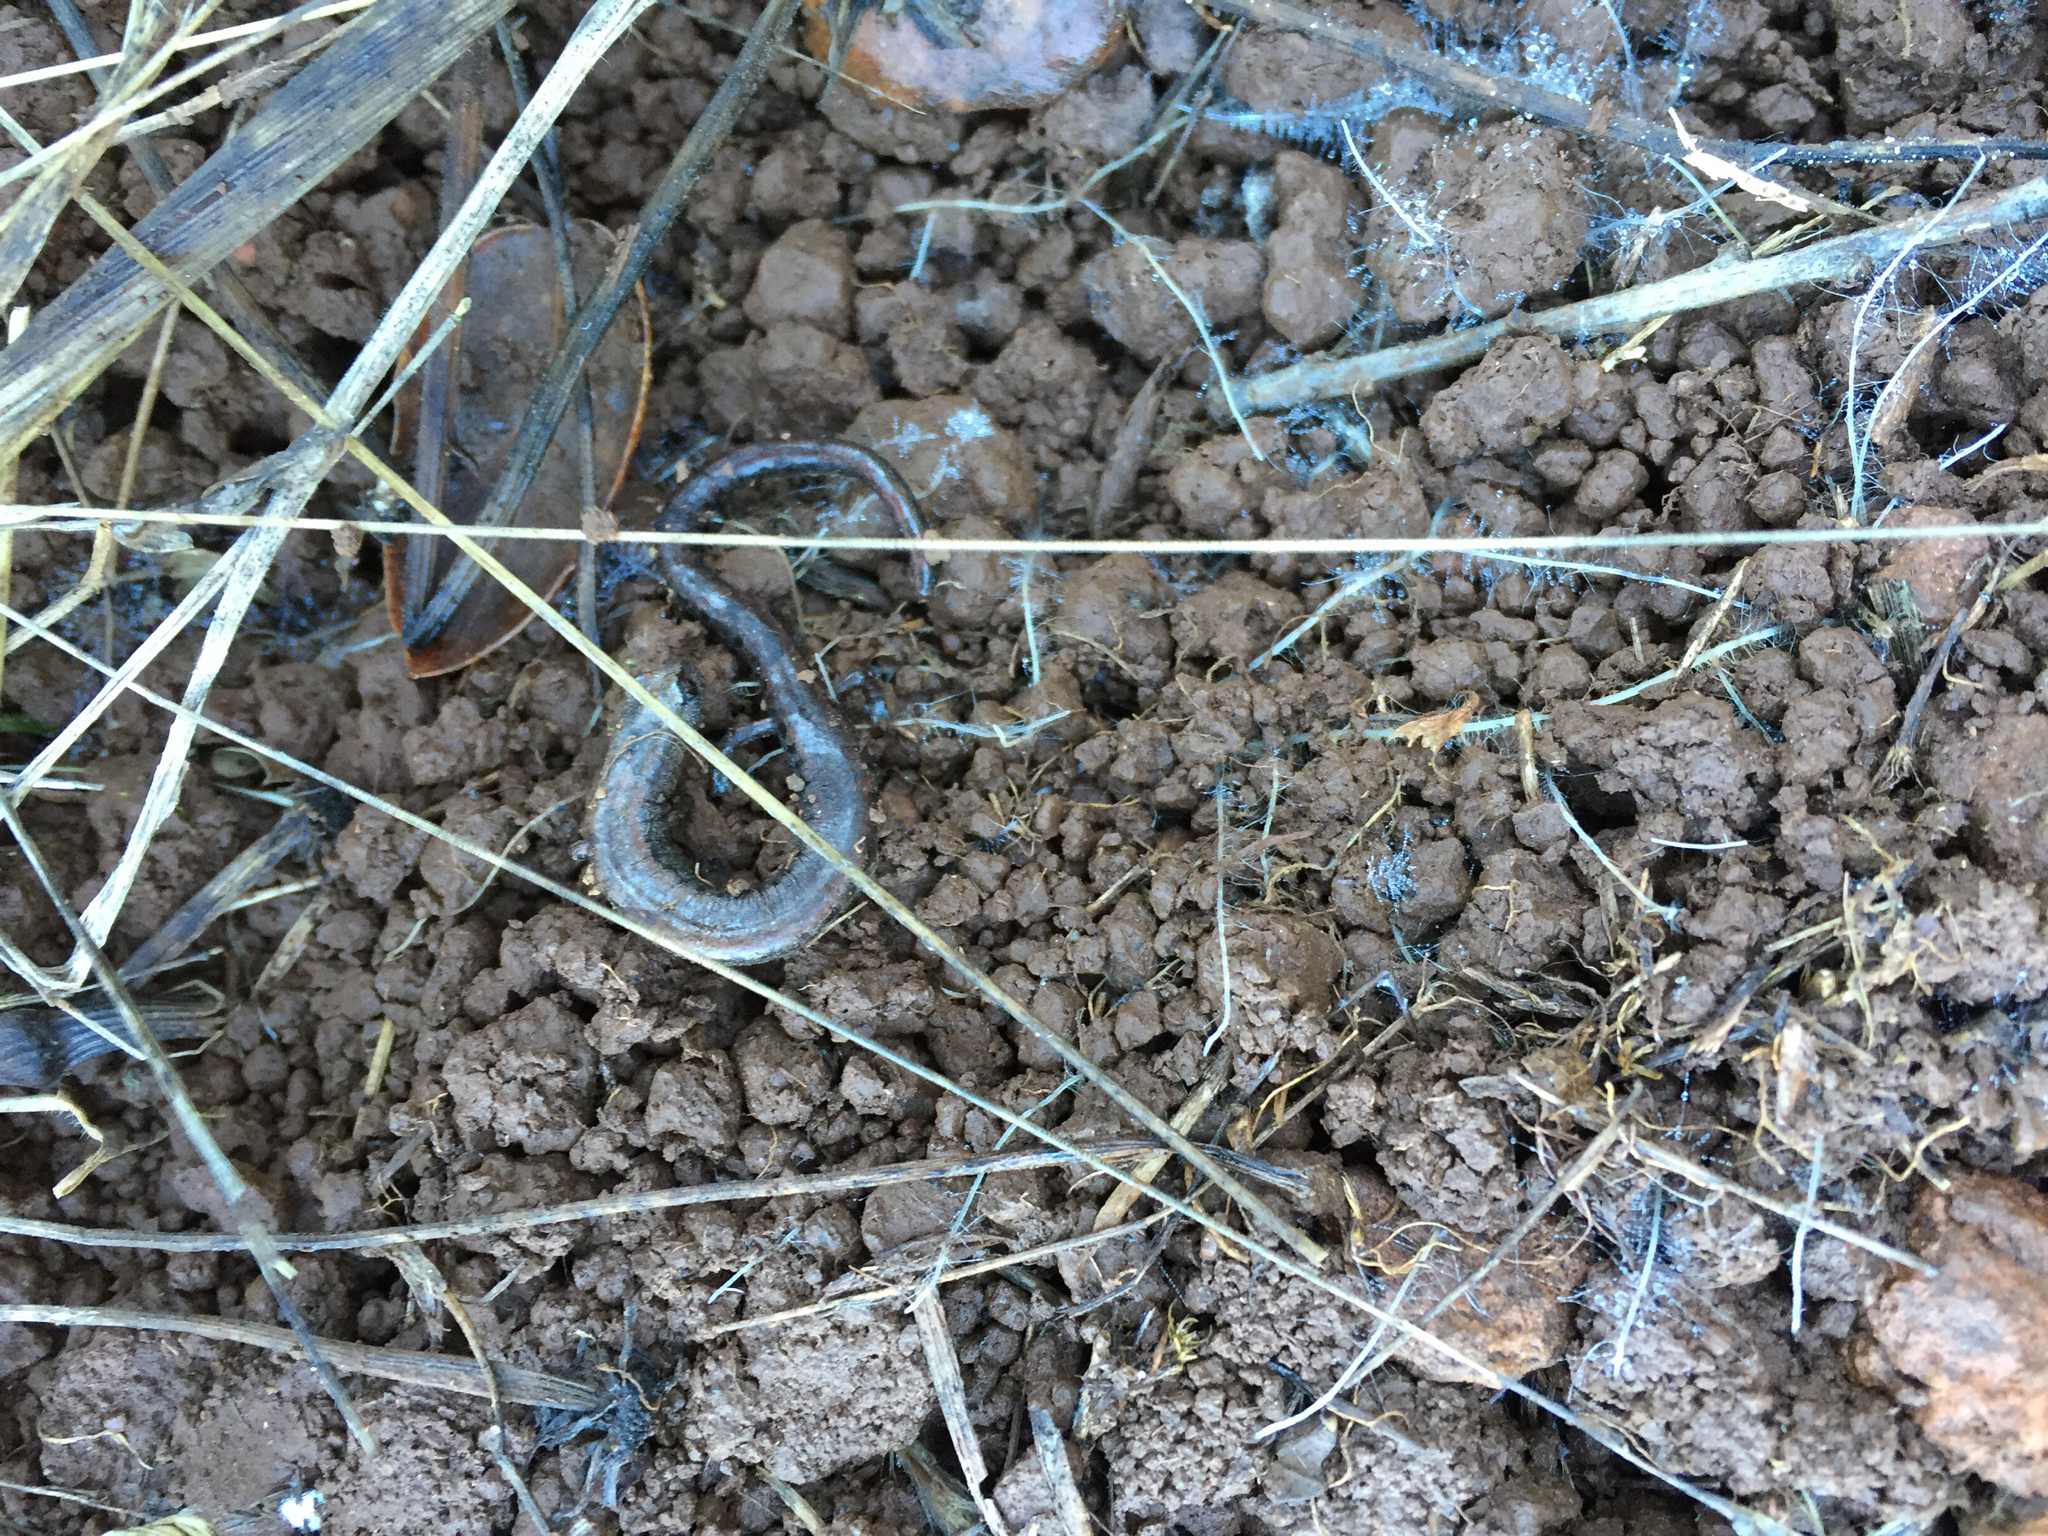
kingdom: Animalia
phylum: Chordata
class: Amphibia
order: Caudata
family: Plethodontidae
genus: Batrachoseps
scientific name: Batrachoseps attenuatus
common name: California slender salamander
